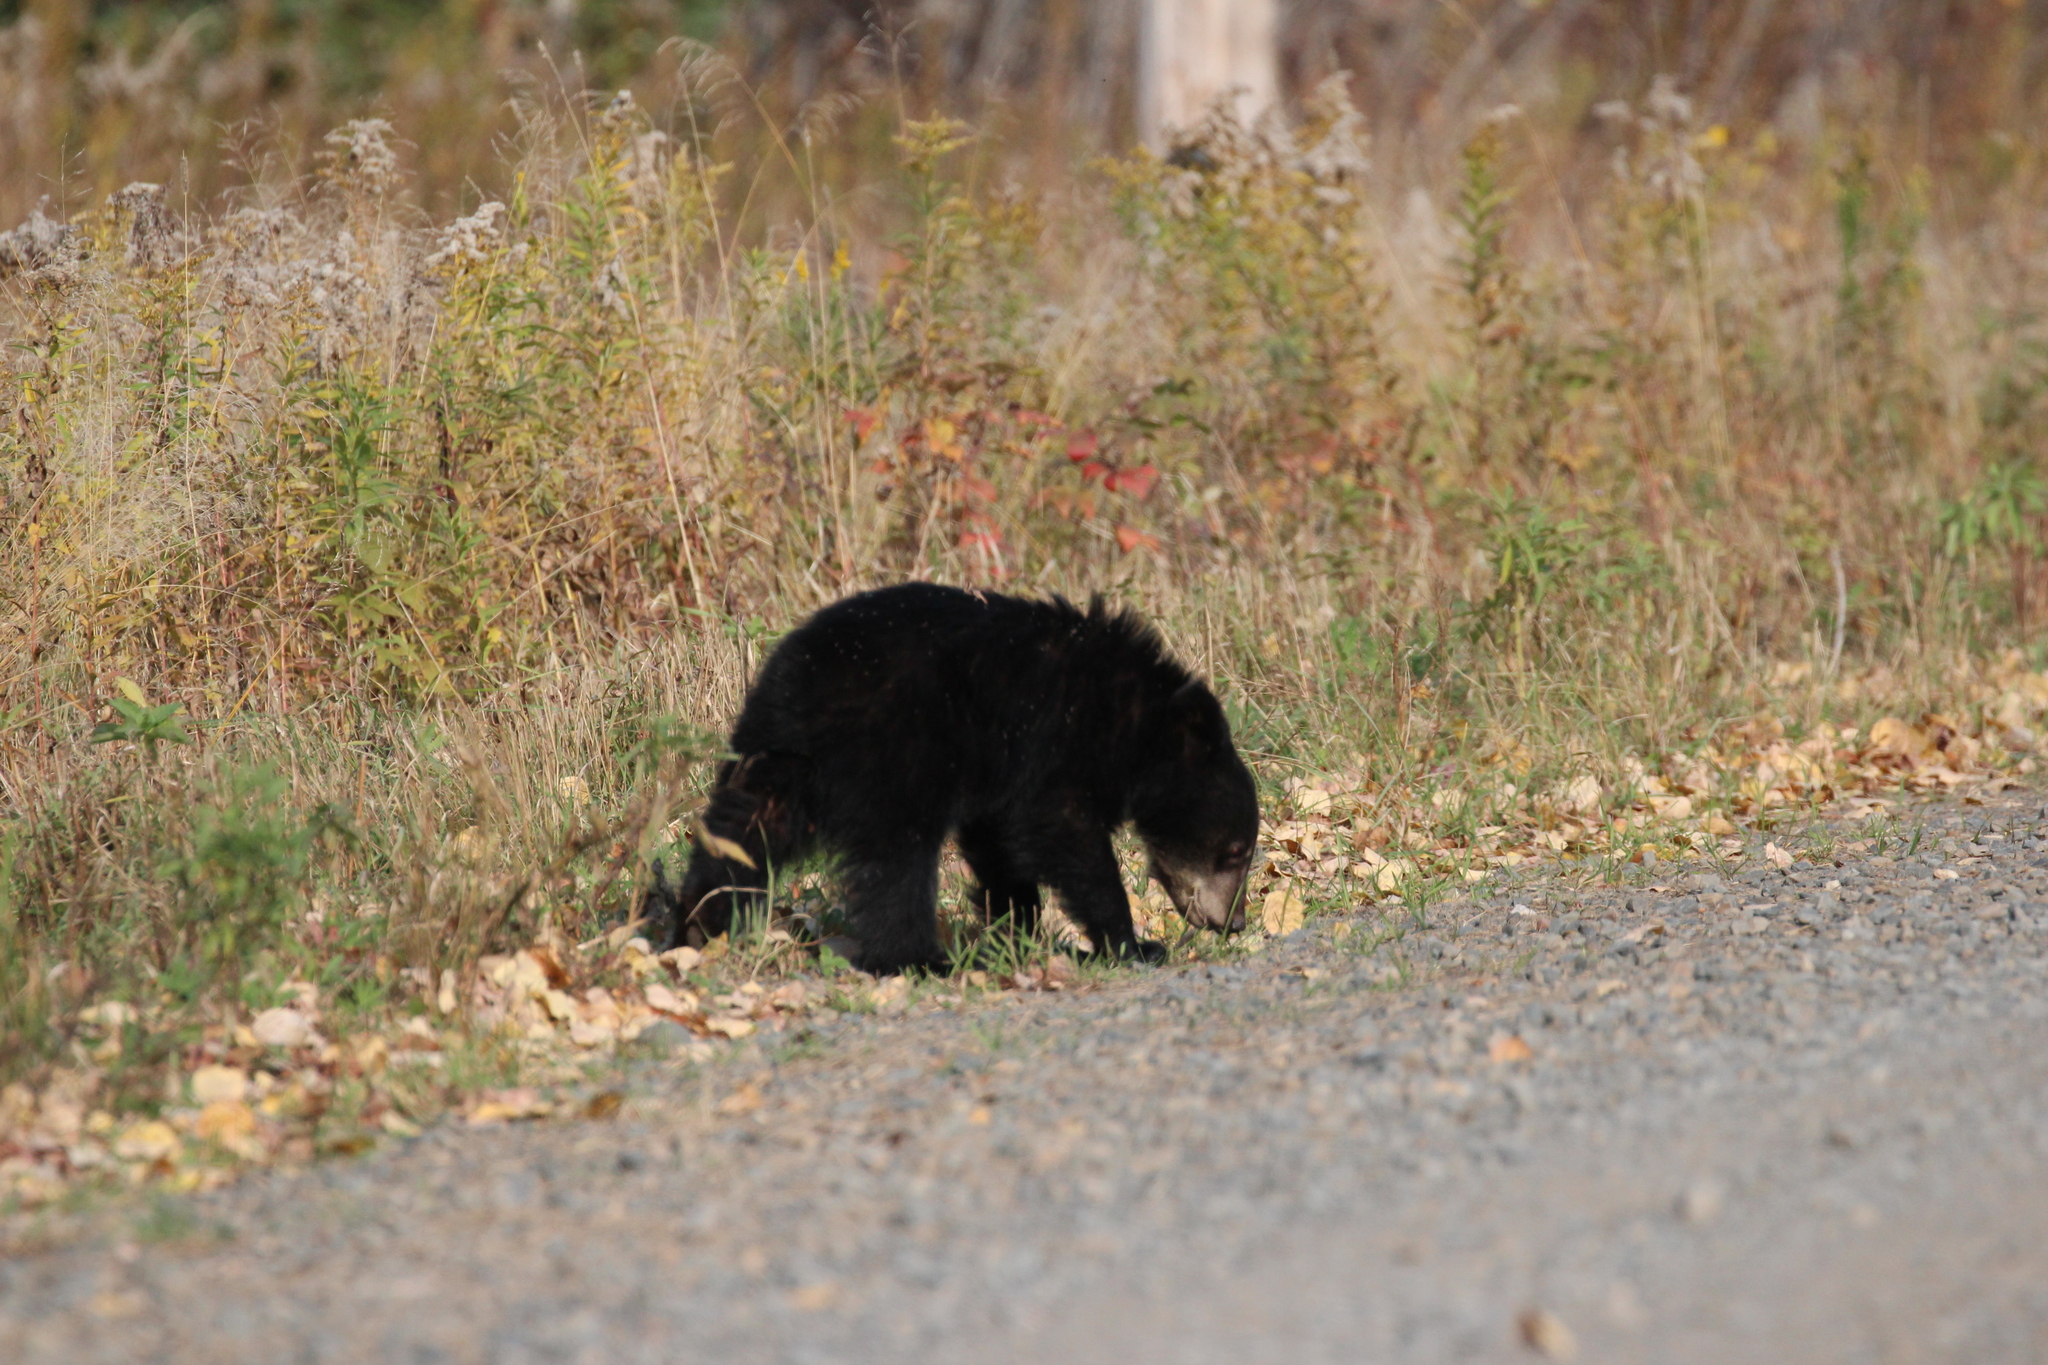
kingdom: Animalia
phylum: Chordata
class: Mammalia
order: Carnivora
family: Ursidae
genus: Ursus
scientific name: Ursus americanus
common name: American black bear
